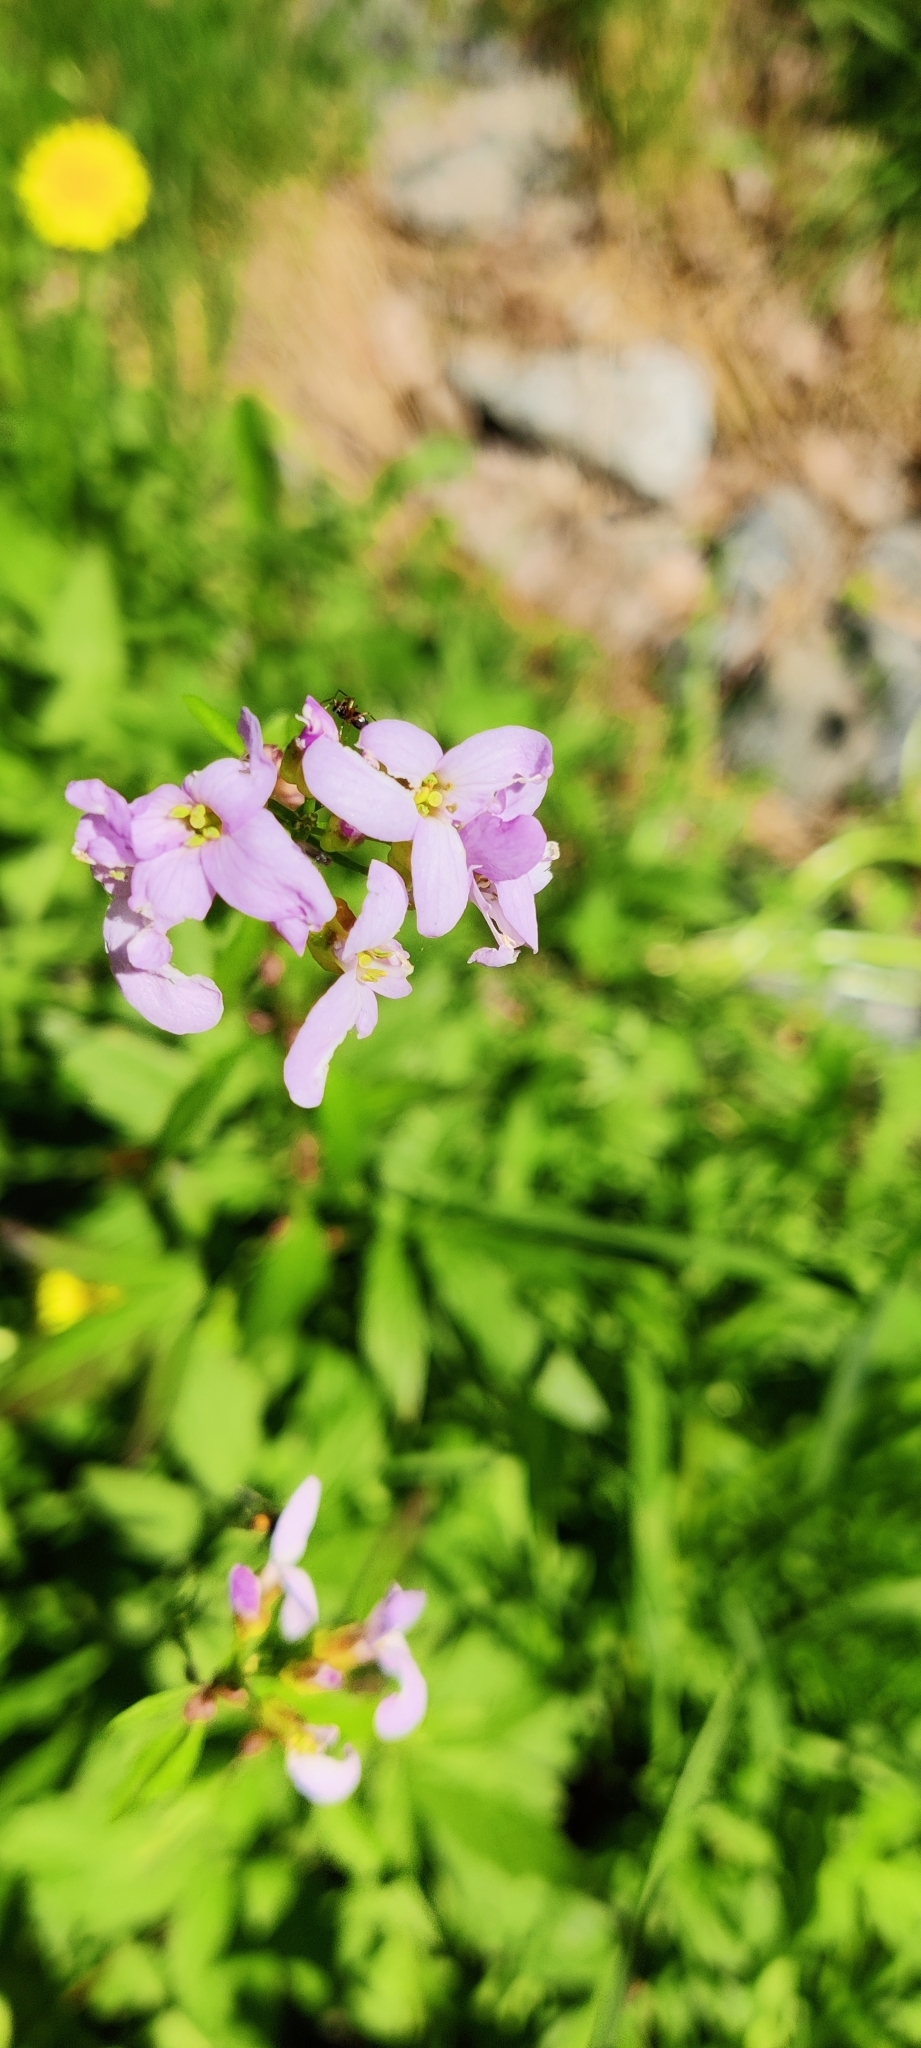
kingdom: Plantae
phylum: Tracheophyta
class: Magnoliopsida
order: Brassicales
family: Brassicaceae
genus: Cardamine
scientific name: Cardamine bulbifera
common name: Coralroot bittercress
